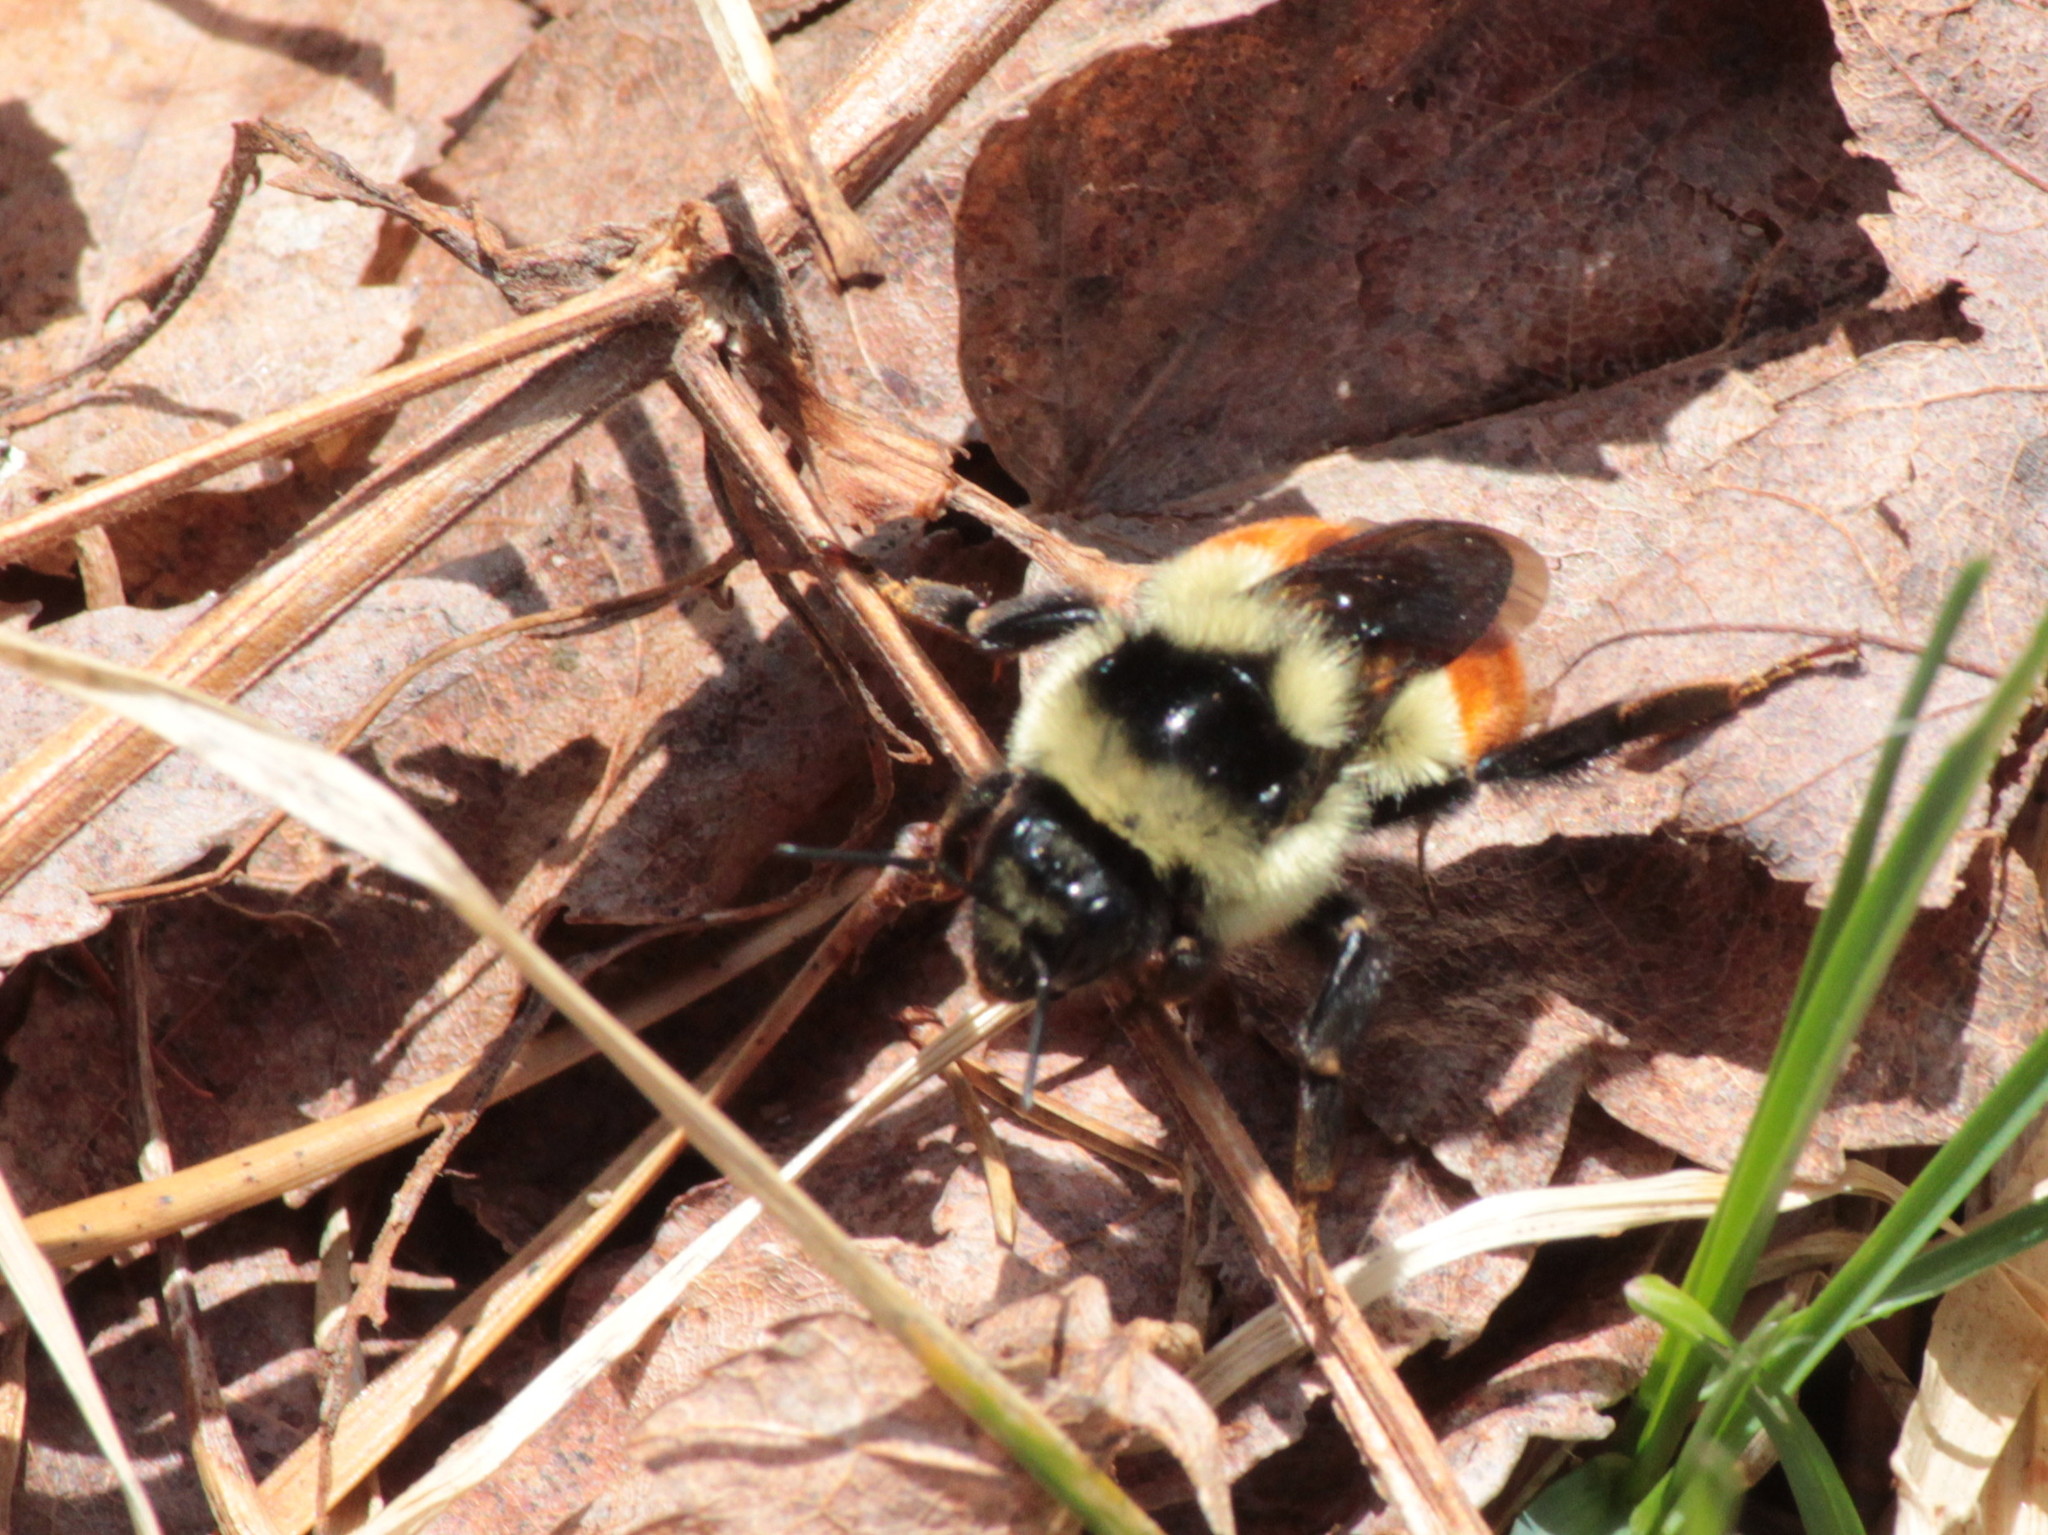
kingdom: Animalia
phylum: Arthropoda
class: Insecta
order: Hymenoptera
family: Apidae
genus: Bombus
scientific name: Bombus ternarius
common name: Tri-colored bumble bee
